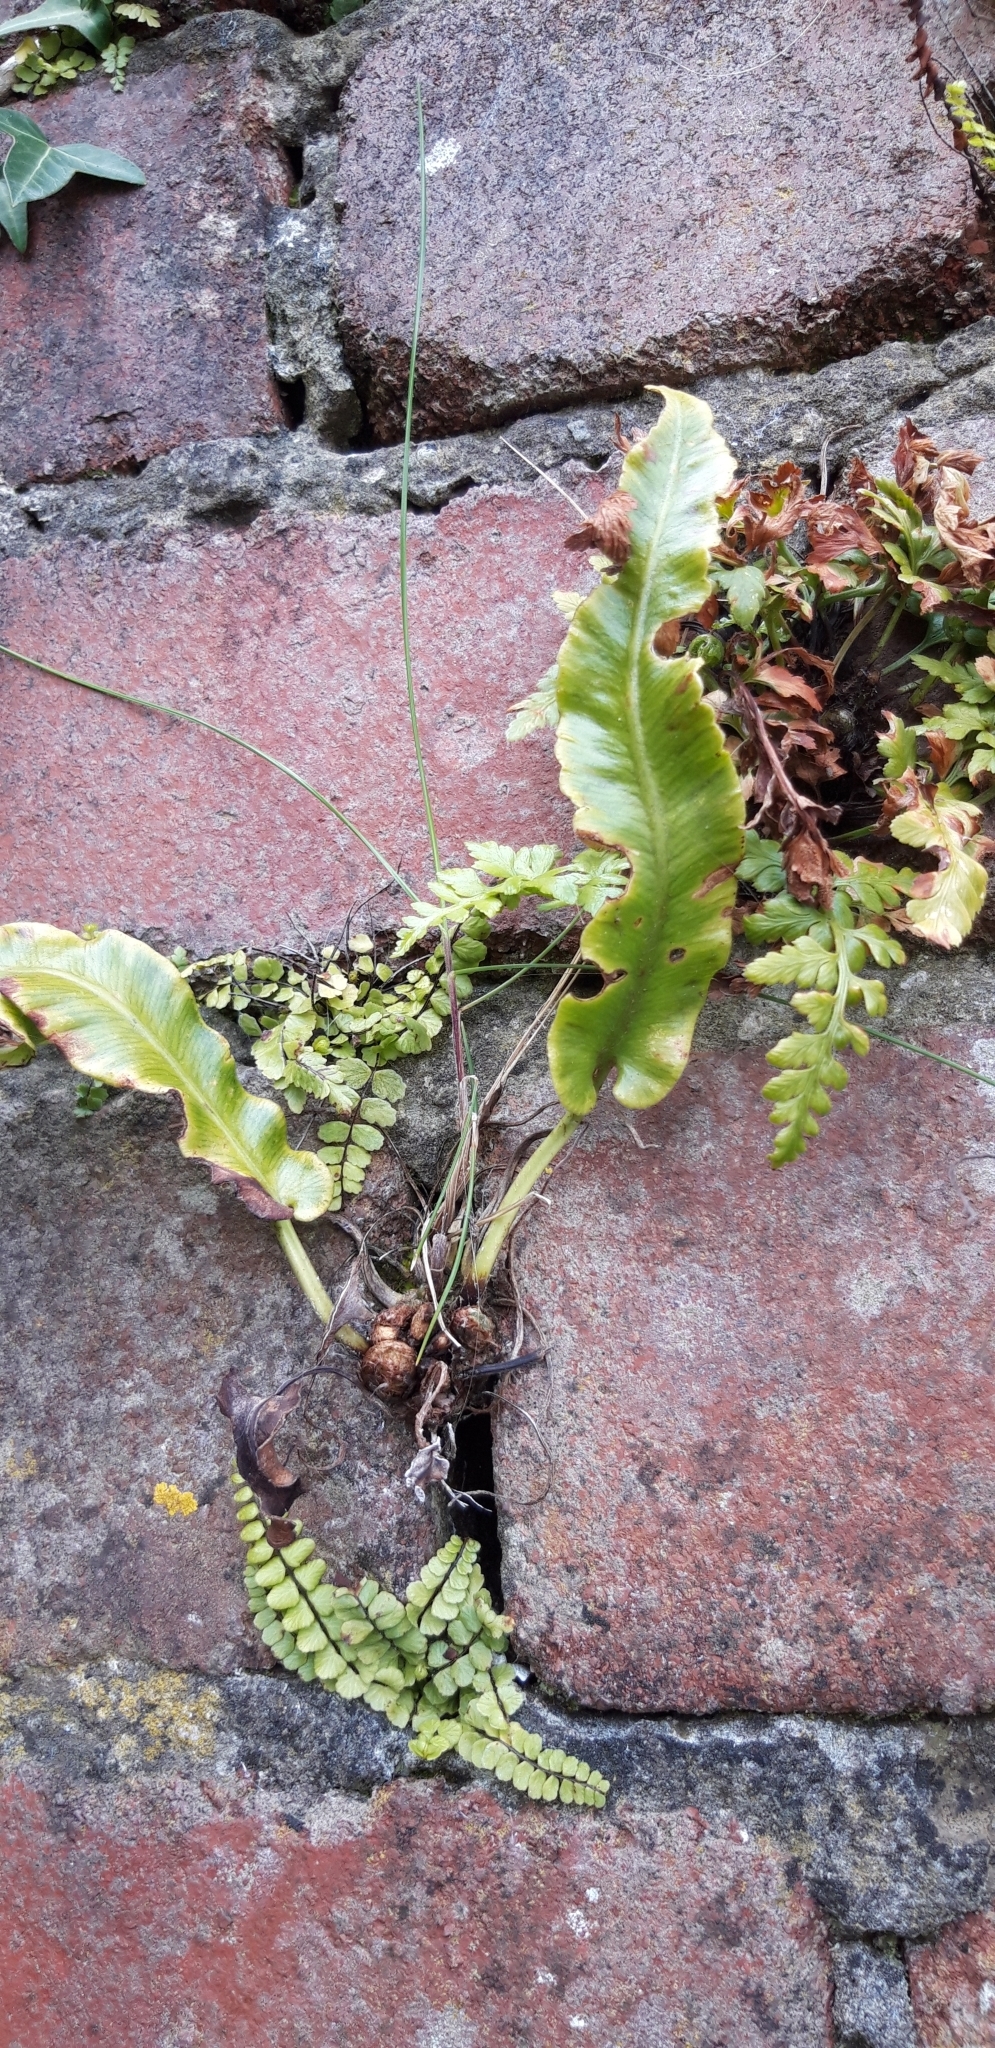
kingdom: Plantae
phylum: Tracheophyta
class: Polypodiopsida
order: Polypodiales
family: Aspleniaceae
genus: Asplenium
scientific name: Asplenium scolopendrium
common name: Hart's-tongue fern
